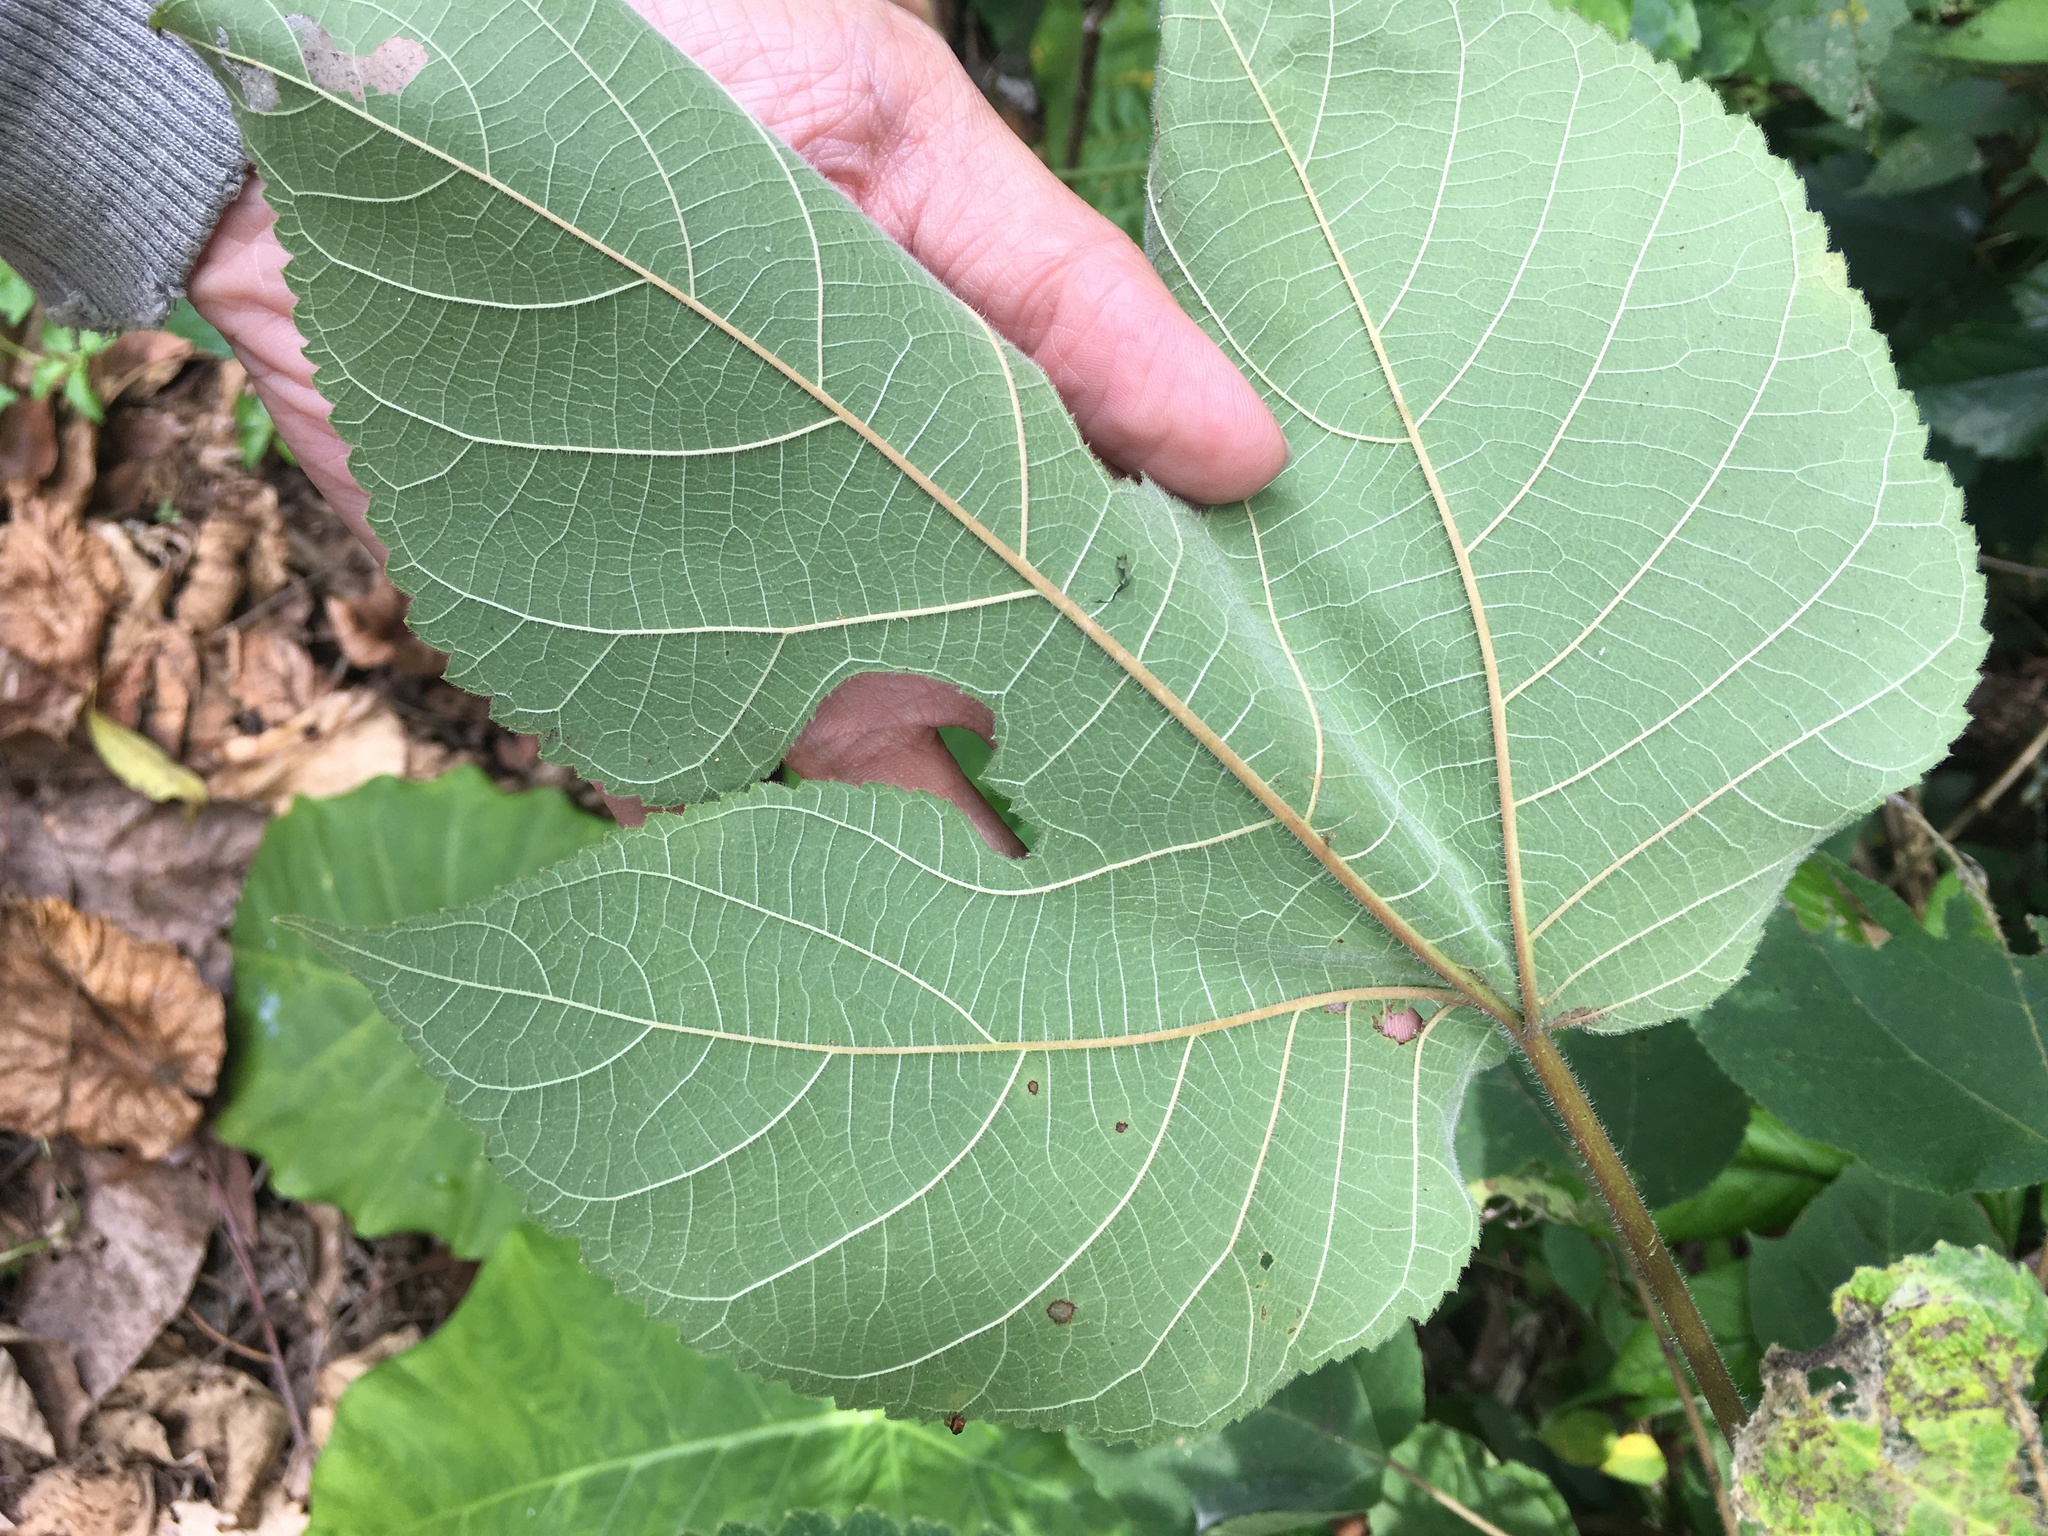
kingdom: Plantae
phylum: Tracheophyta
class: Magnoliopsida
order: Rosales
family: Moraceae
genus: Broussonetia
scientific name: Broussonetia papyrifera
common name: Paper mulberry
